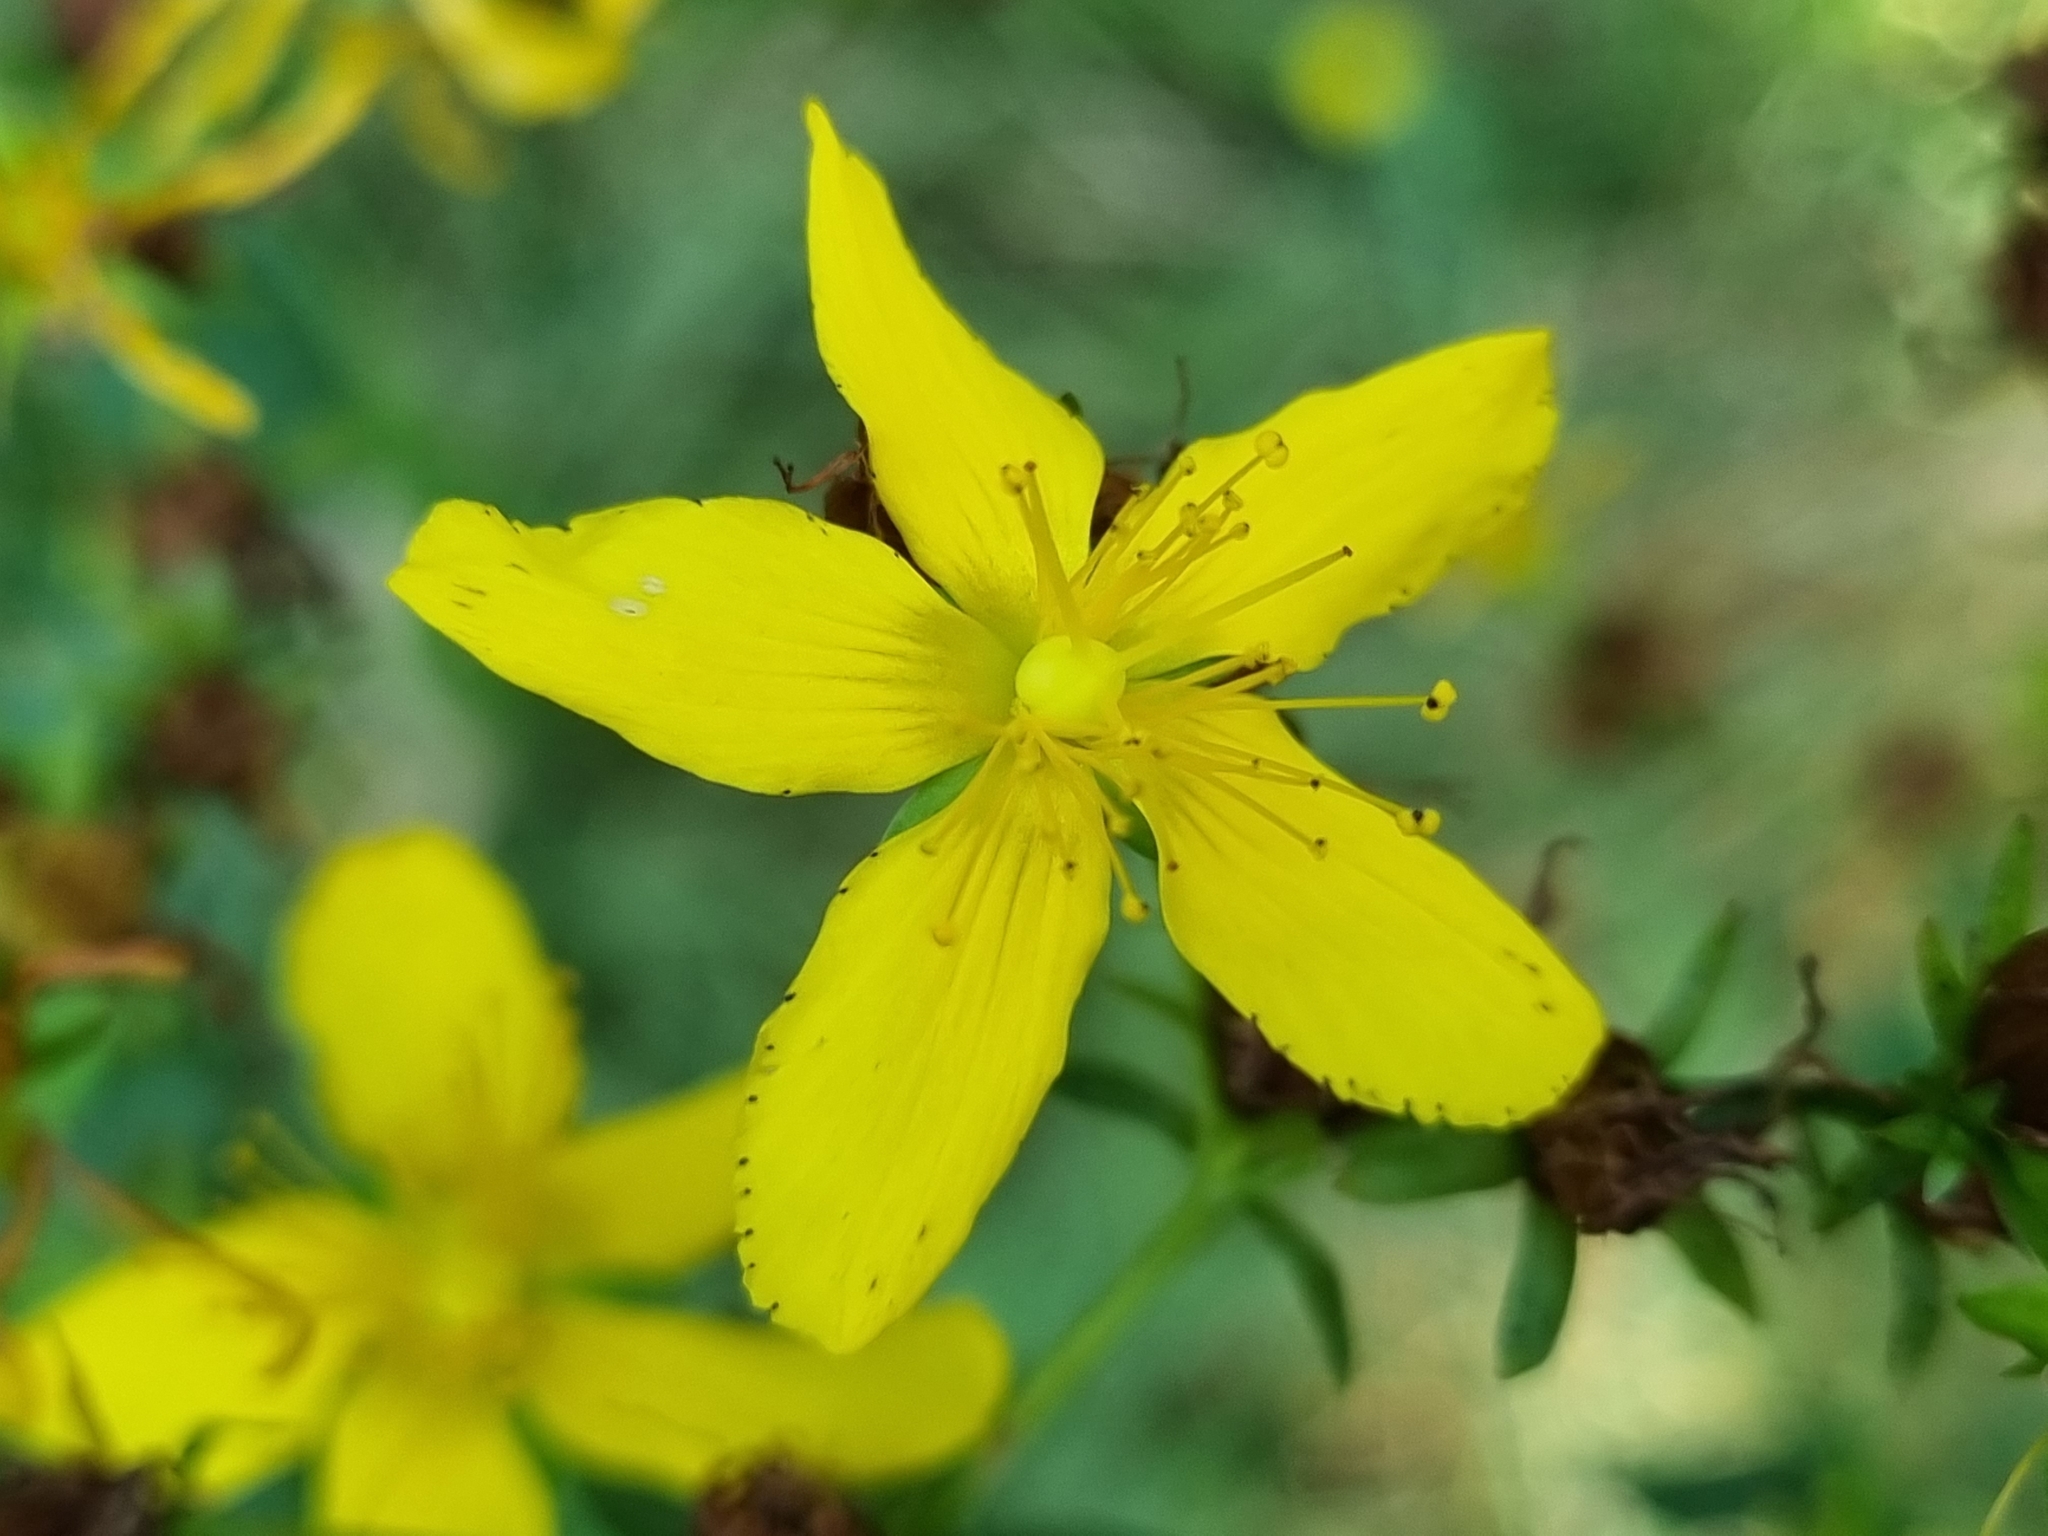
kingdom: Plantae
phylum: Tracheophyta
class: Magnoliopsida
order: Malpighiales
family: Hypericaceae
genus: Hypericum
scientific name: Hypericum perforatum
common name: Common st. johnswort
